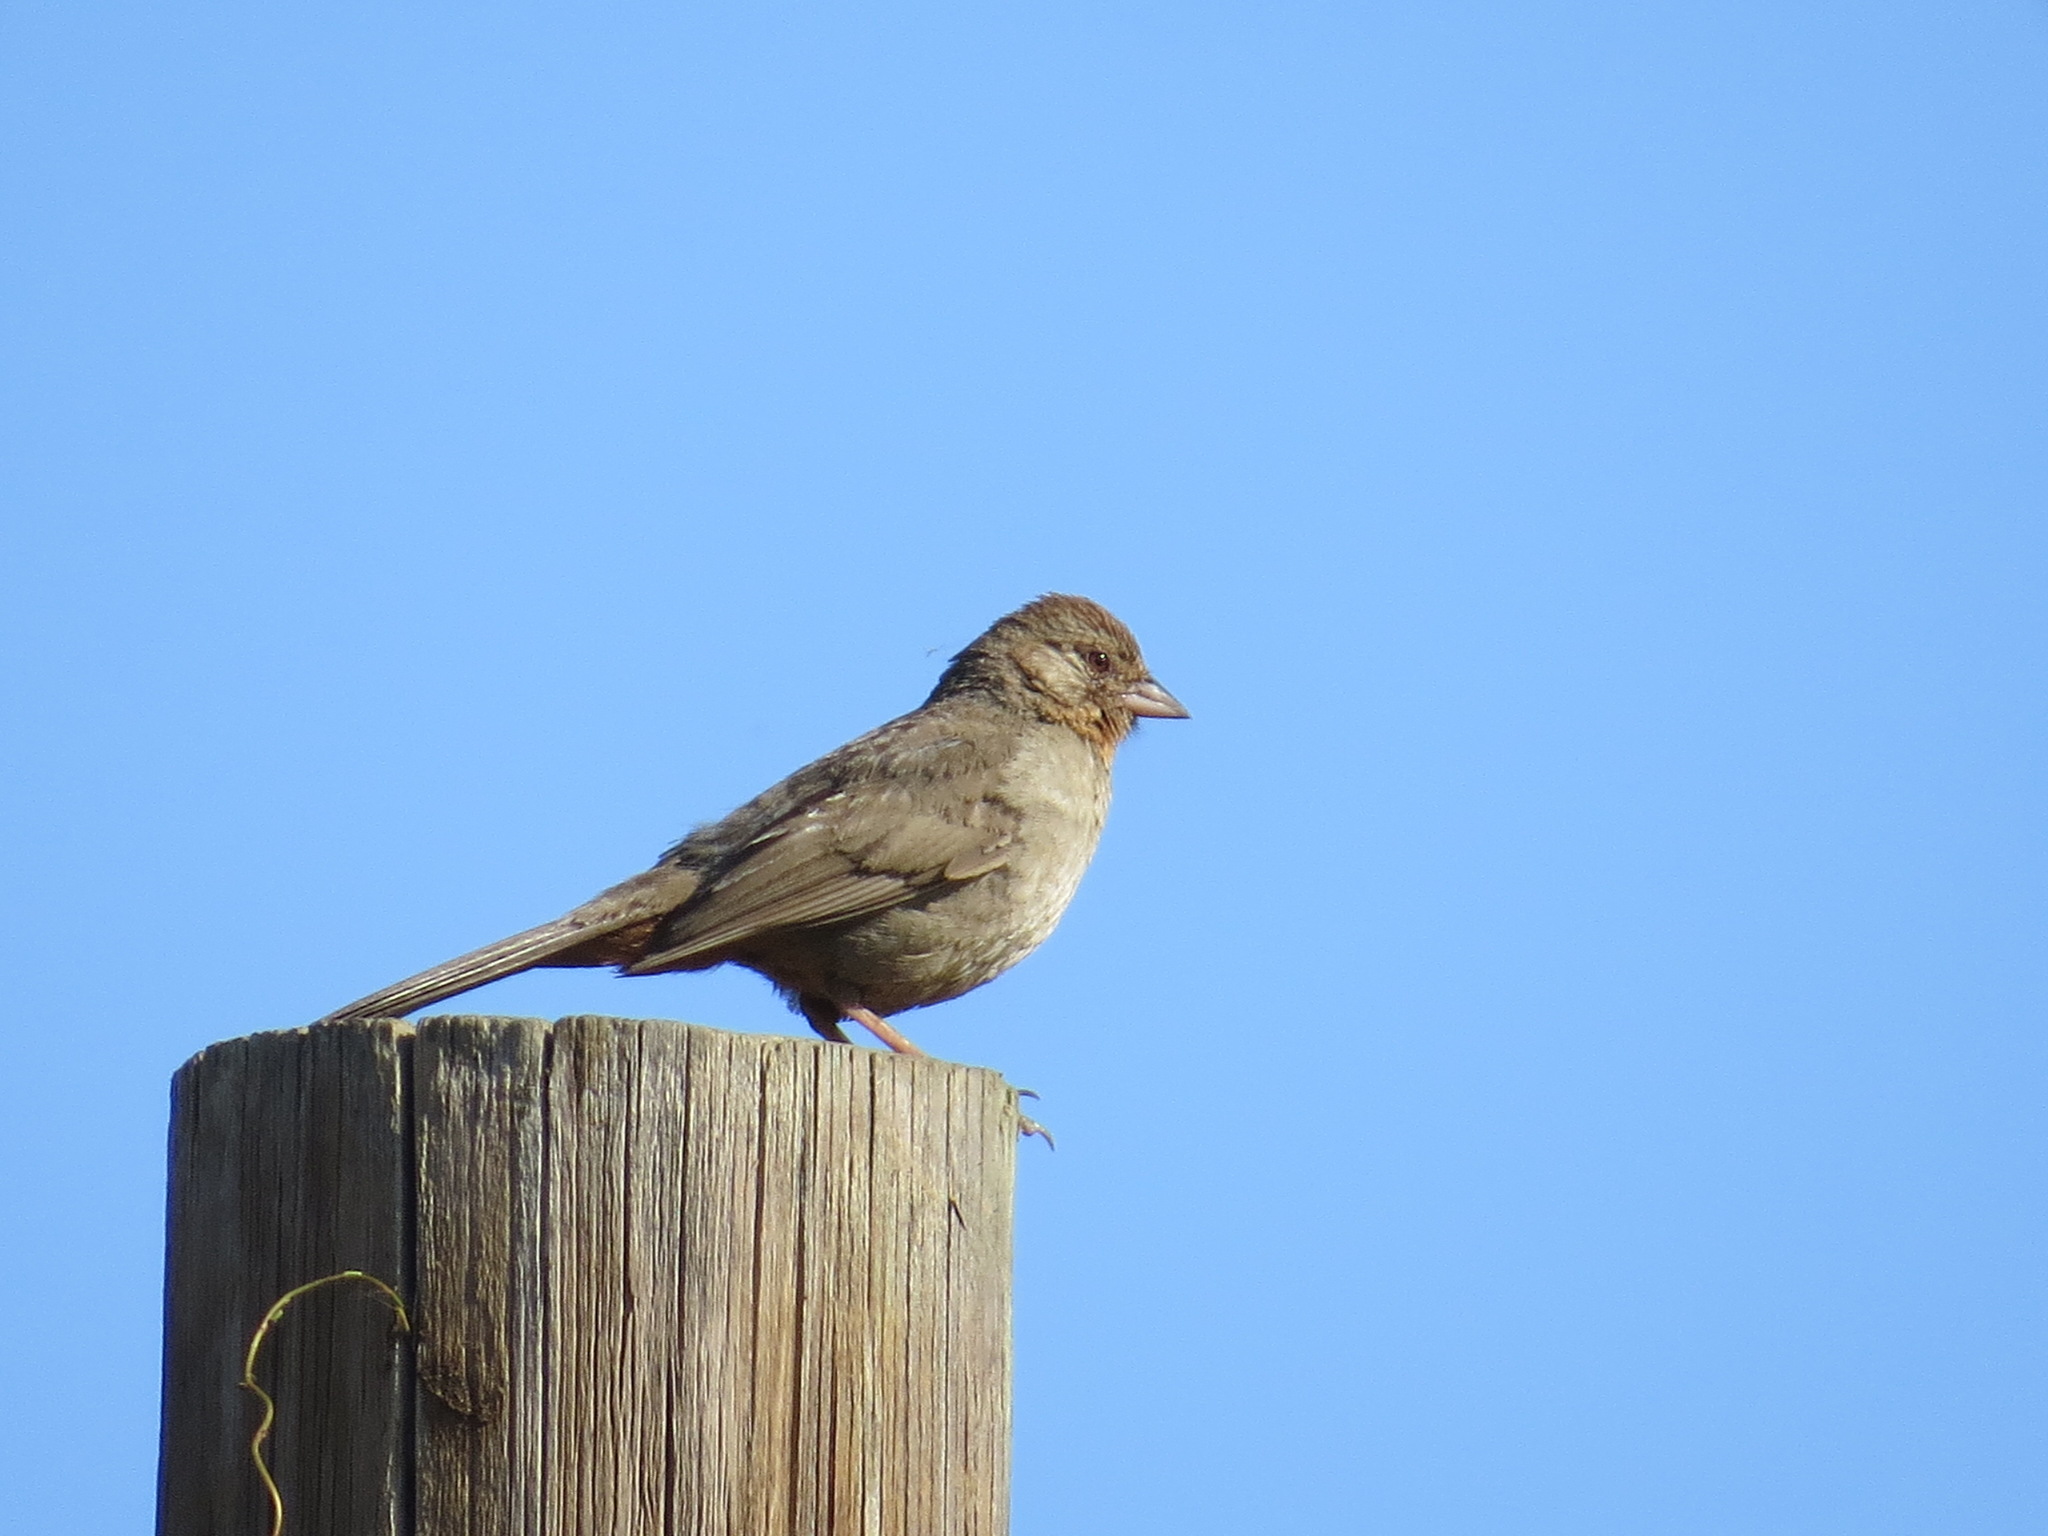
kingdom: Animalia
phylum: Chordata
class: Aves
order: Passeriformes
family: Passerellidae
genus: Melozone
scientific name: Melozone crissalis
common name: California towhee
